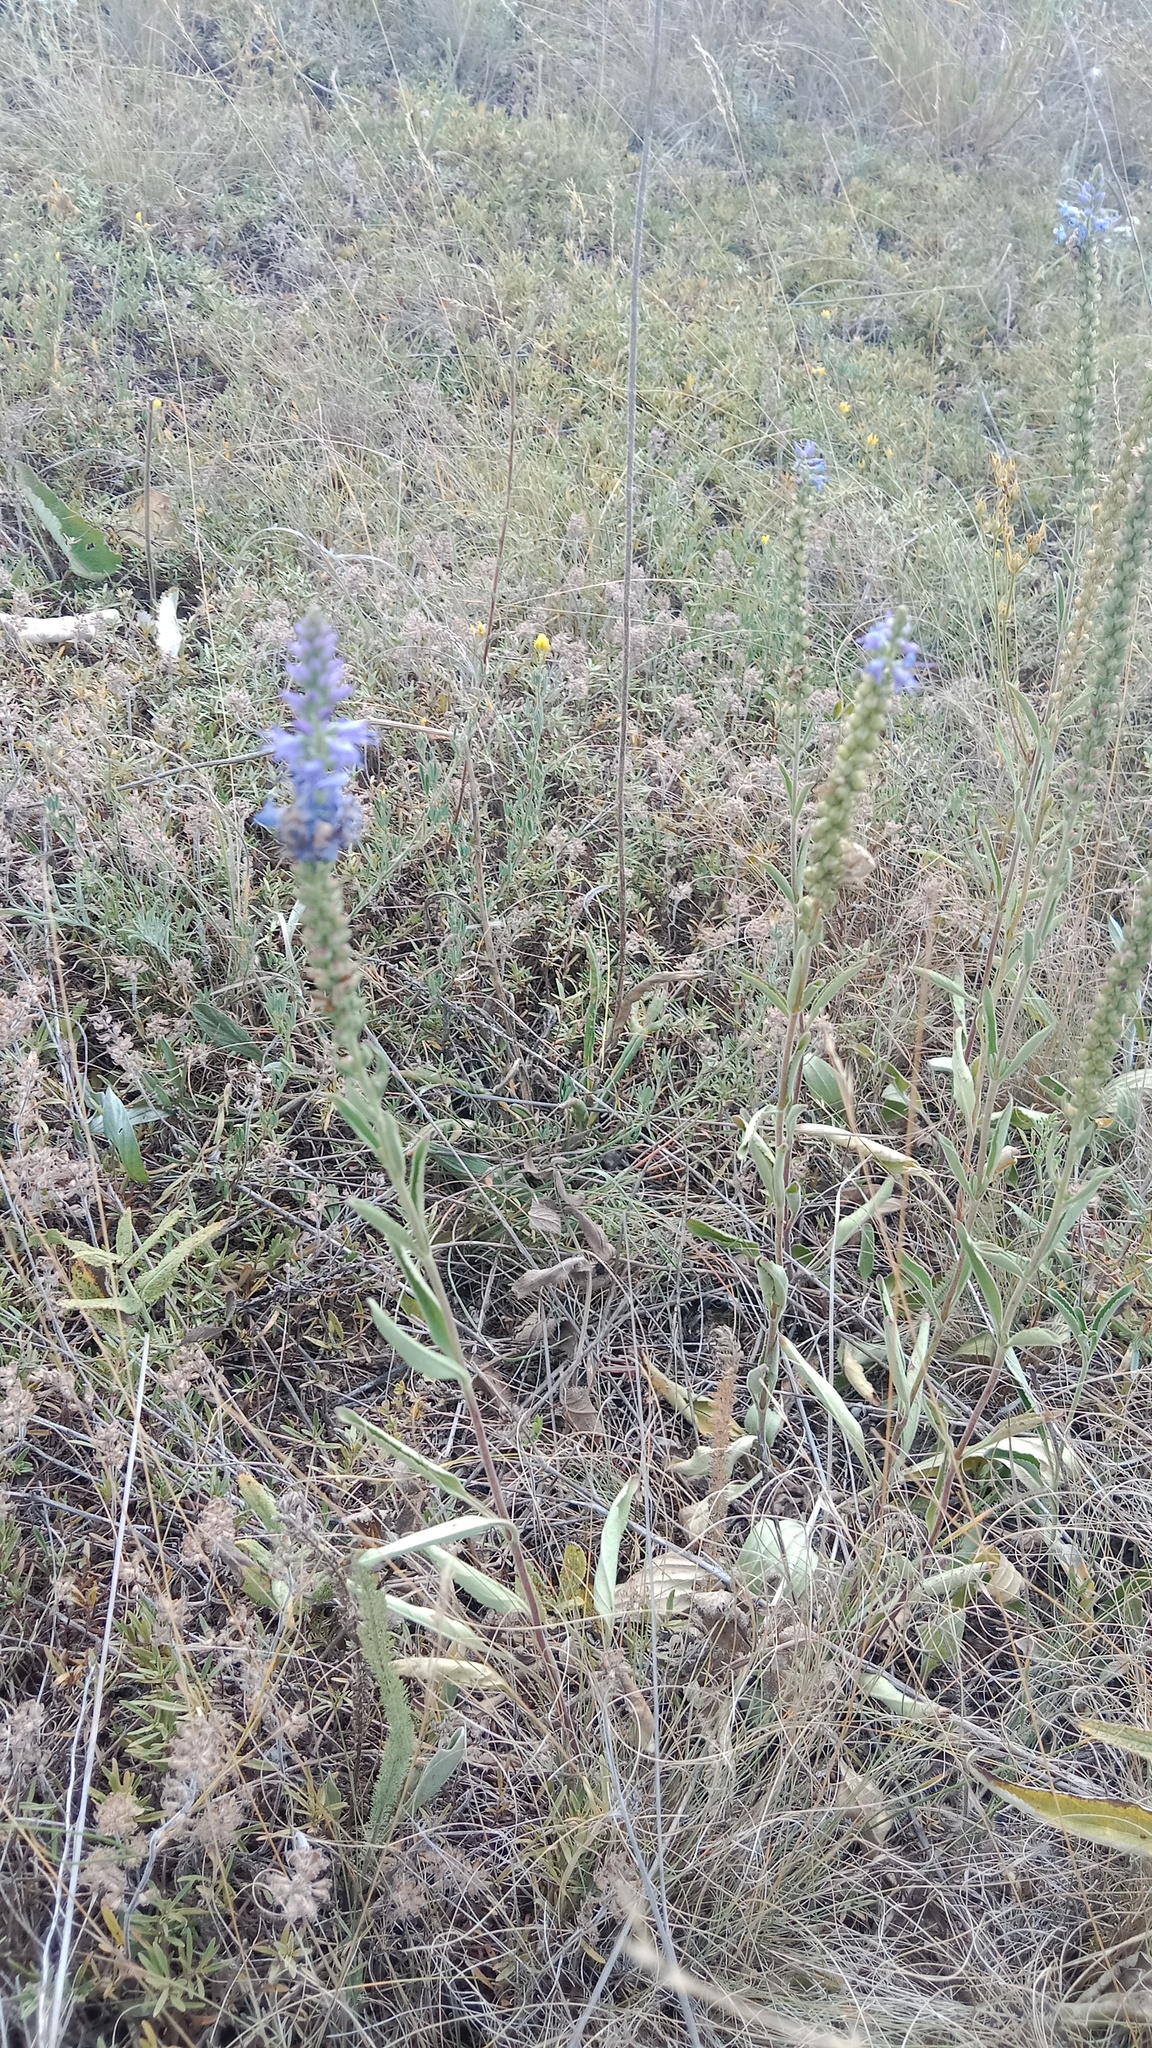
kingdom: Plantae
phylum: Tracheophyta
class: Magnoliopsida
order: Lamiales
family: Plantaginaceae
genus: Veronica
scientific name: Veronica barrelieri
